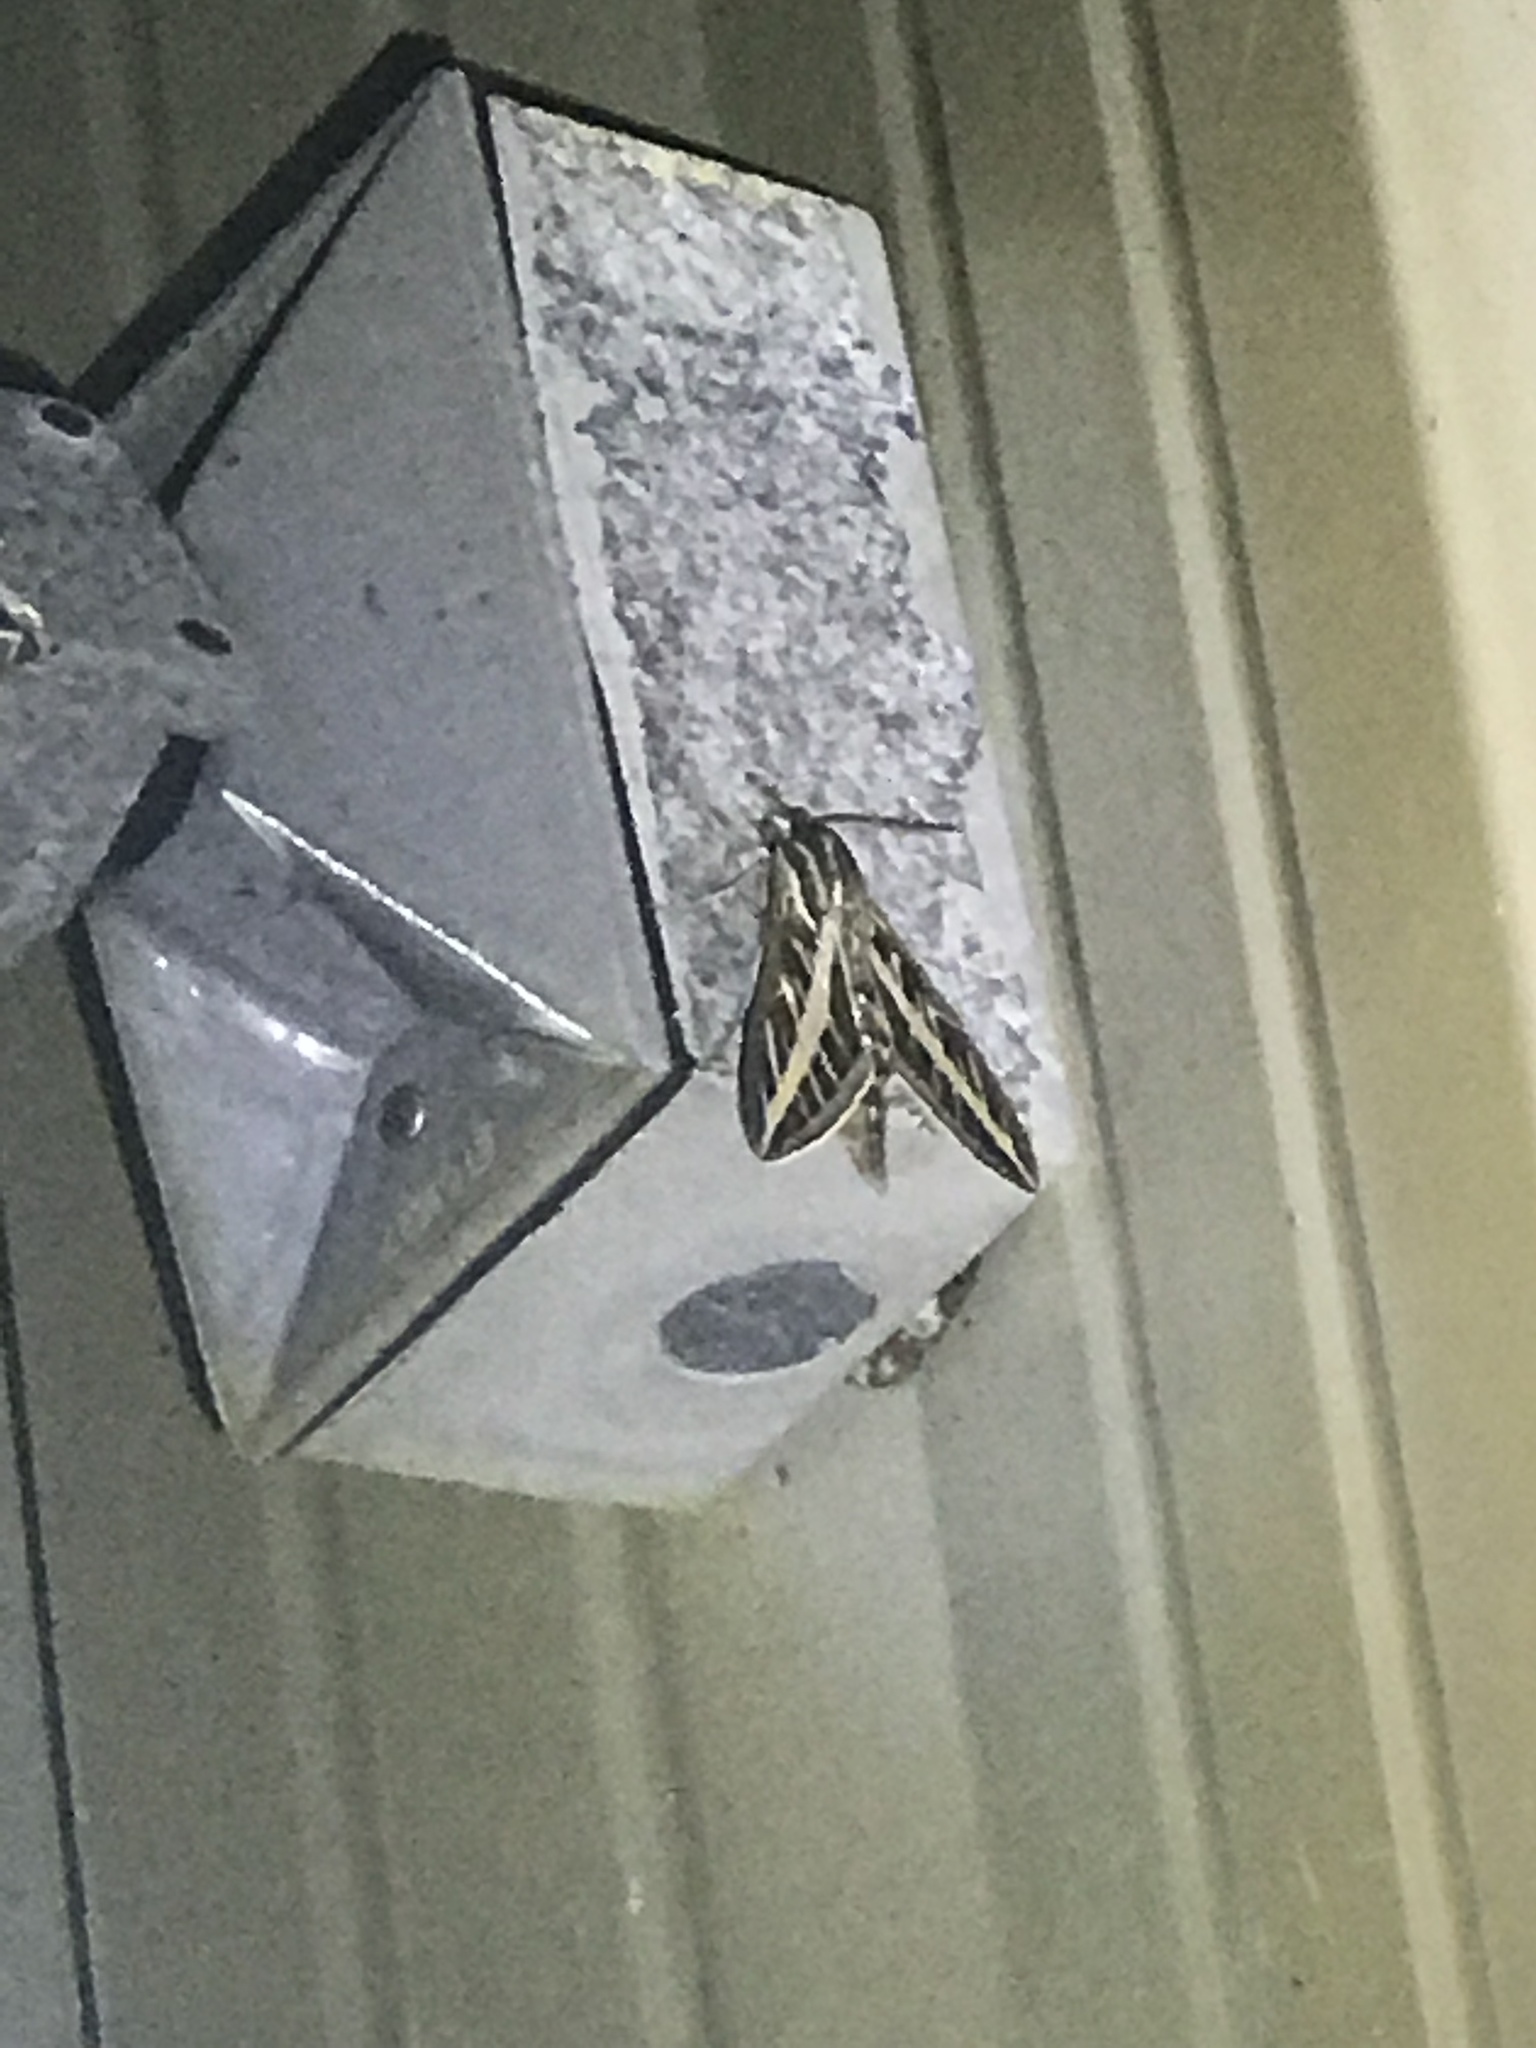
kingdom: Animalia
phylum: Arthropoda
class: Insecta
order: Lepidoptera
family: Sphingidae
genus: Hyles
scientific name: Hyles lineata
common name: White-lined sphinx
